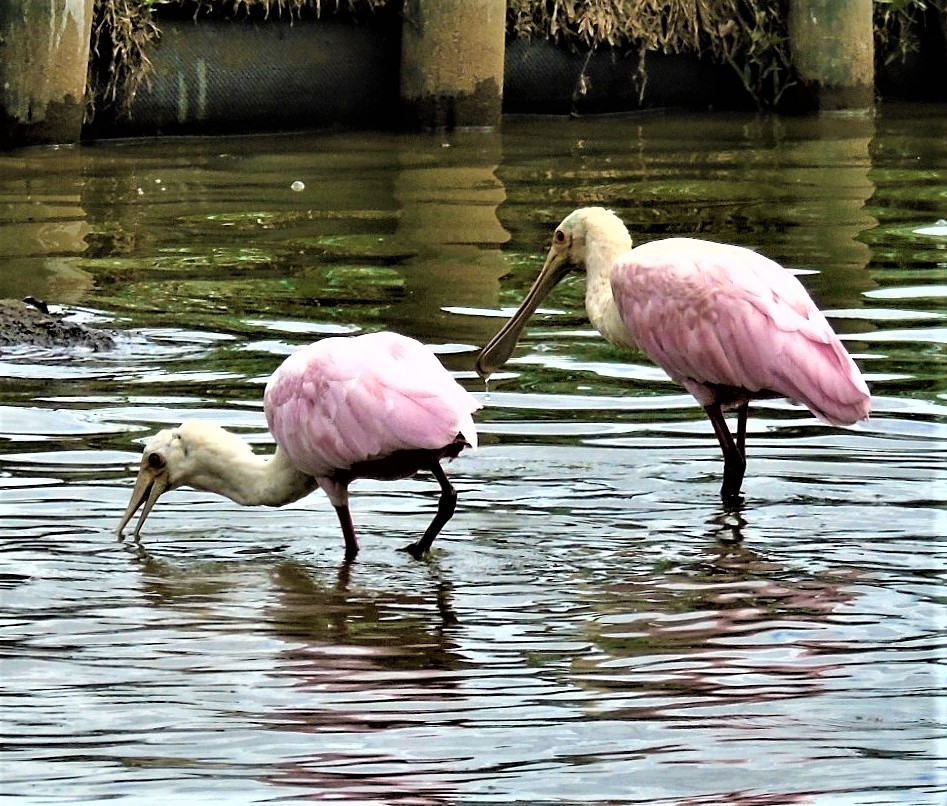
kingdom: Animalia
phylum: Chordata
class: Aves
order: Pelecaniformes
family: Threskiornithidae
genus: Platalea
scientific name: Platalea ajaja
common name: Roseate spoonbill
